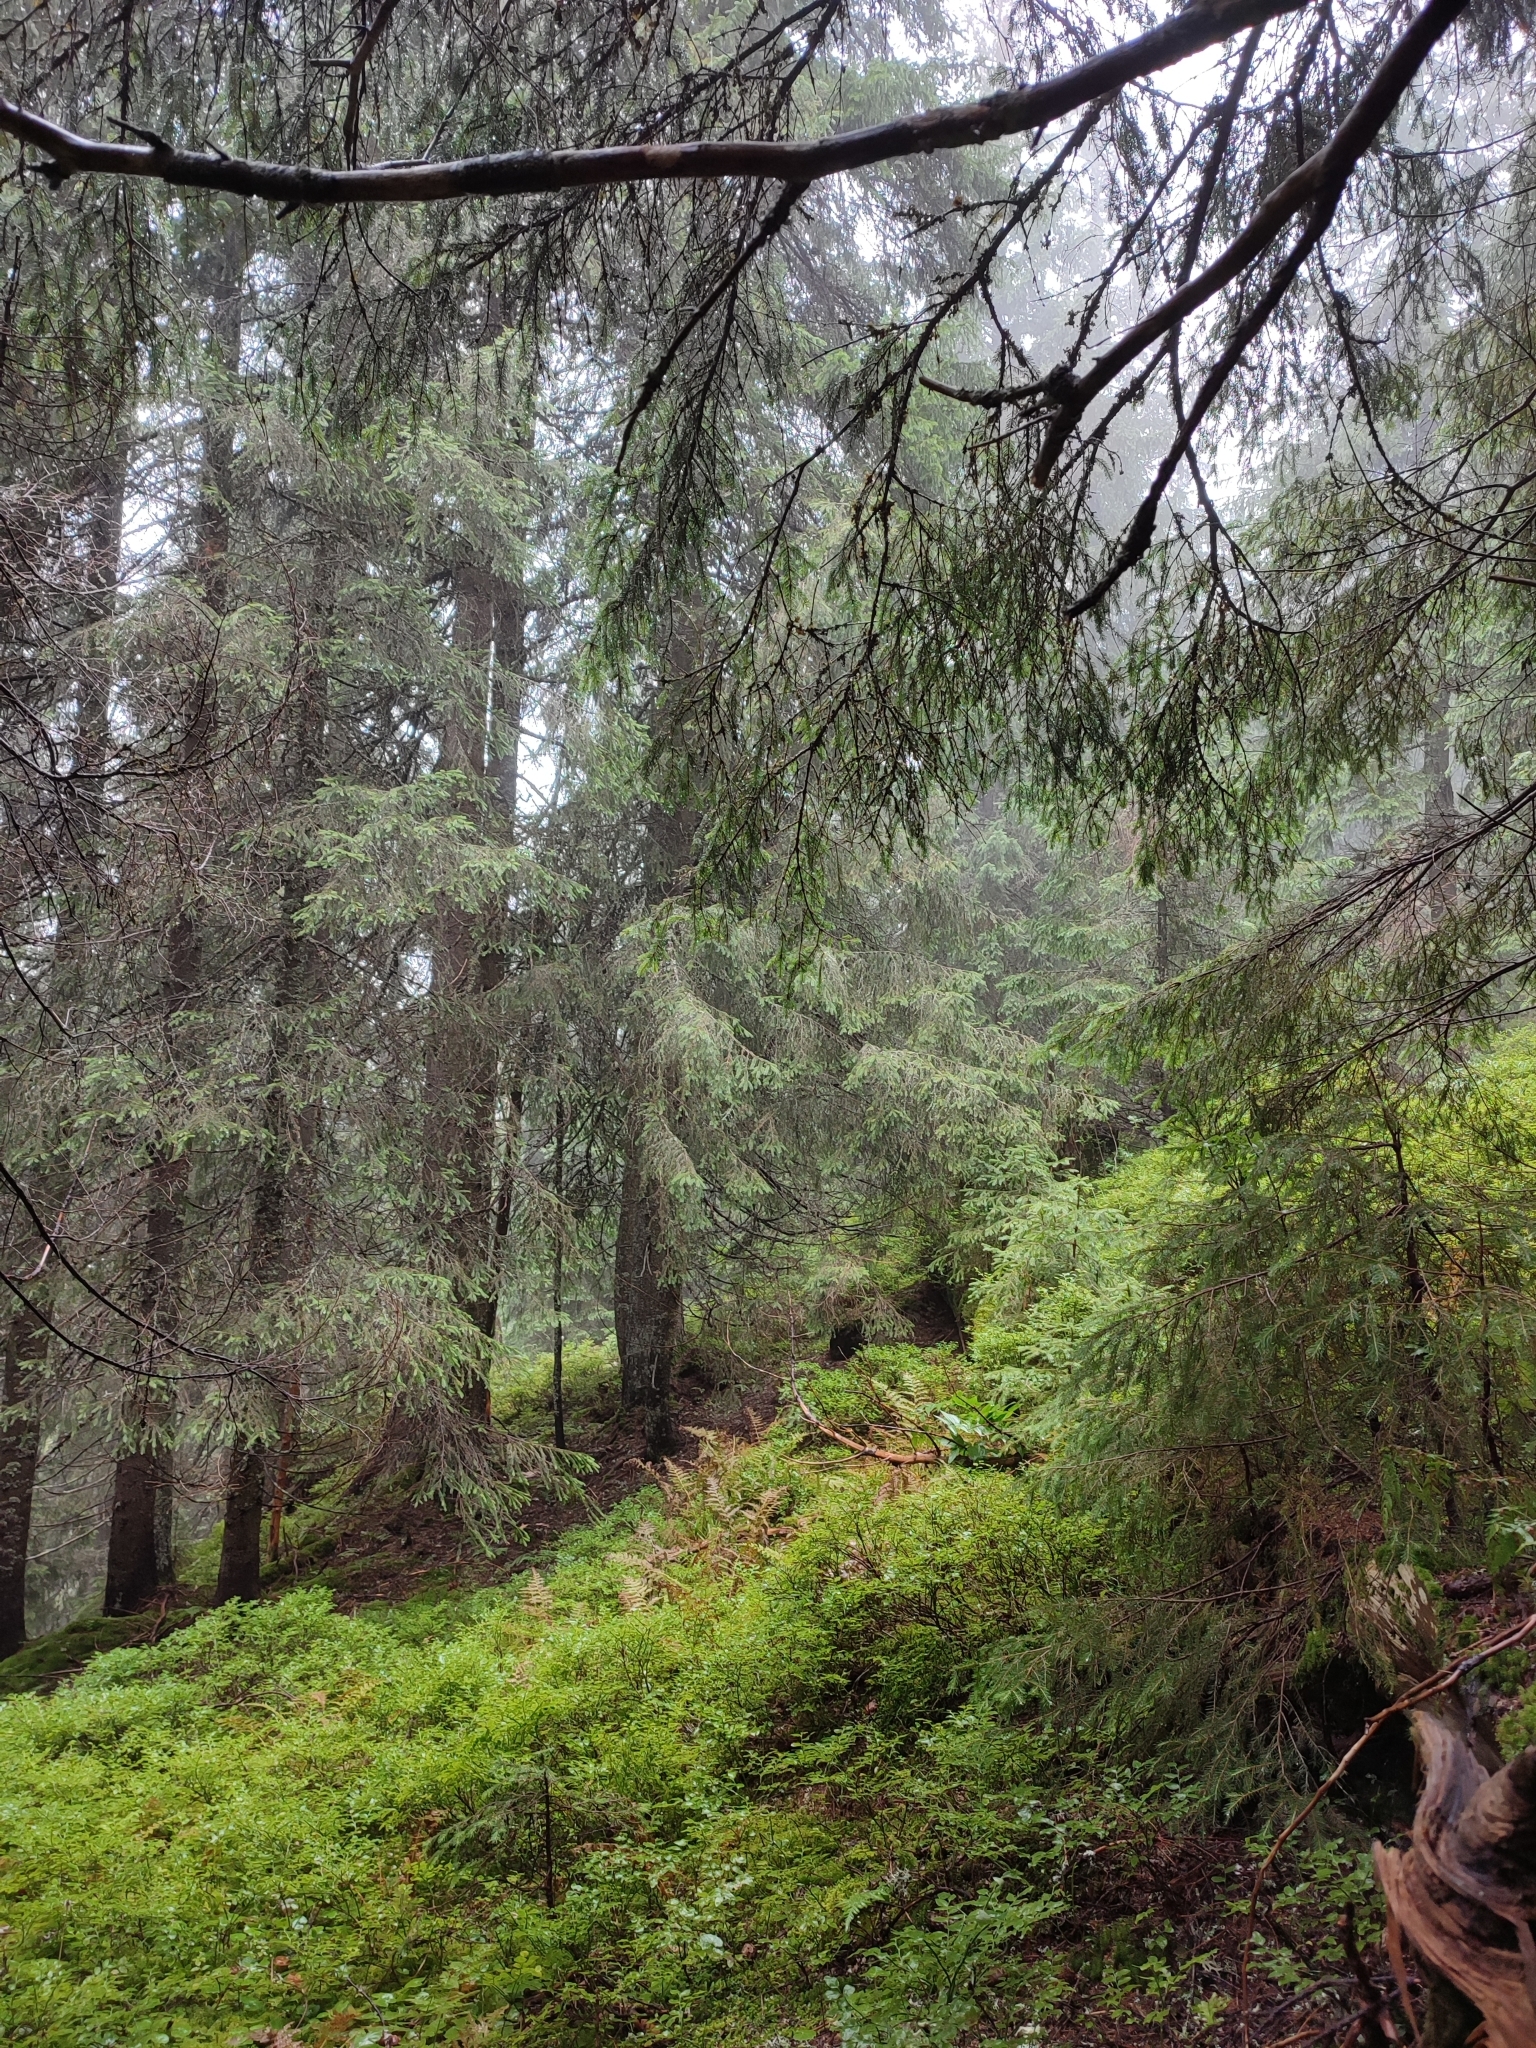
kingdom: Plantae
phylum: Tracheophyta
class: Pinopsida
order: Pinales
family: Pinaceae
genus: Picea
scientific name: Picea abies
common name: Norway spruce
